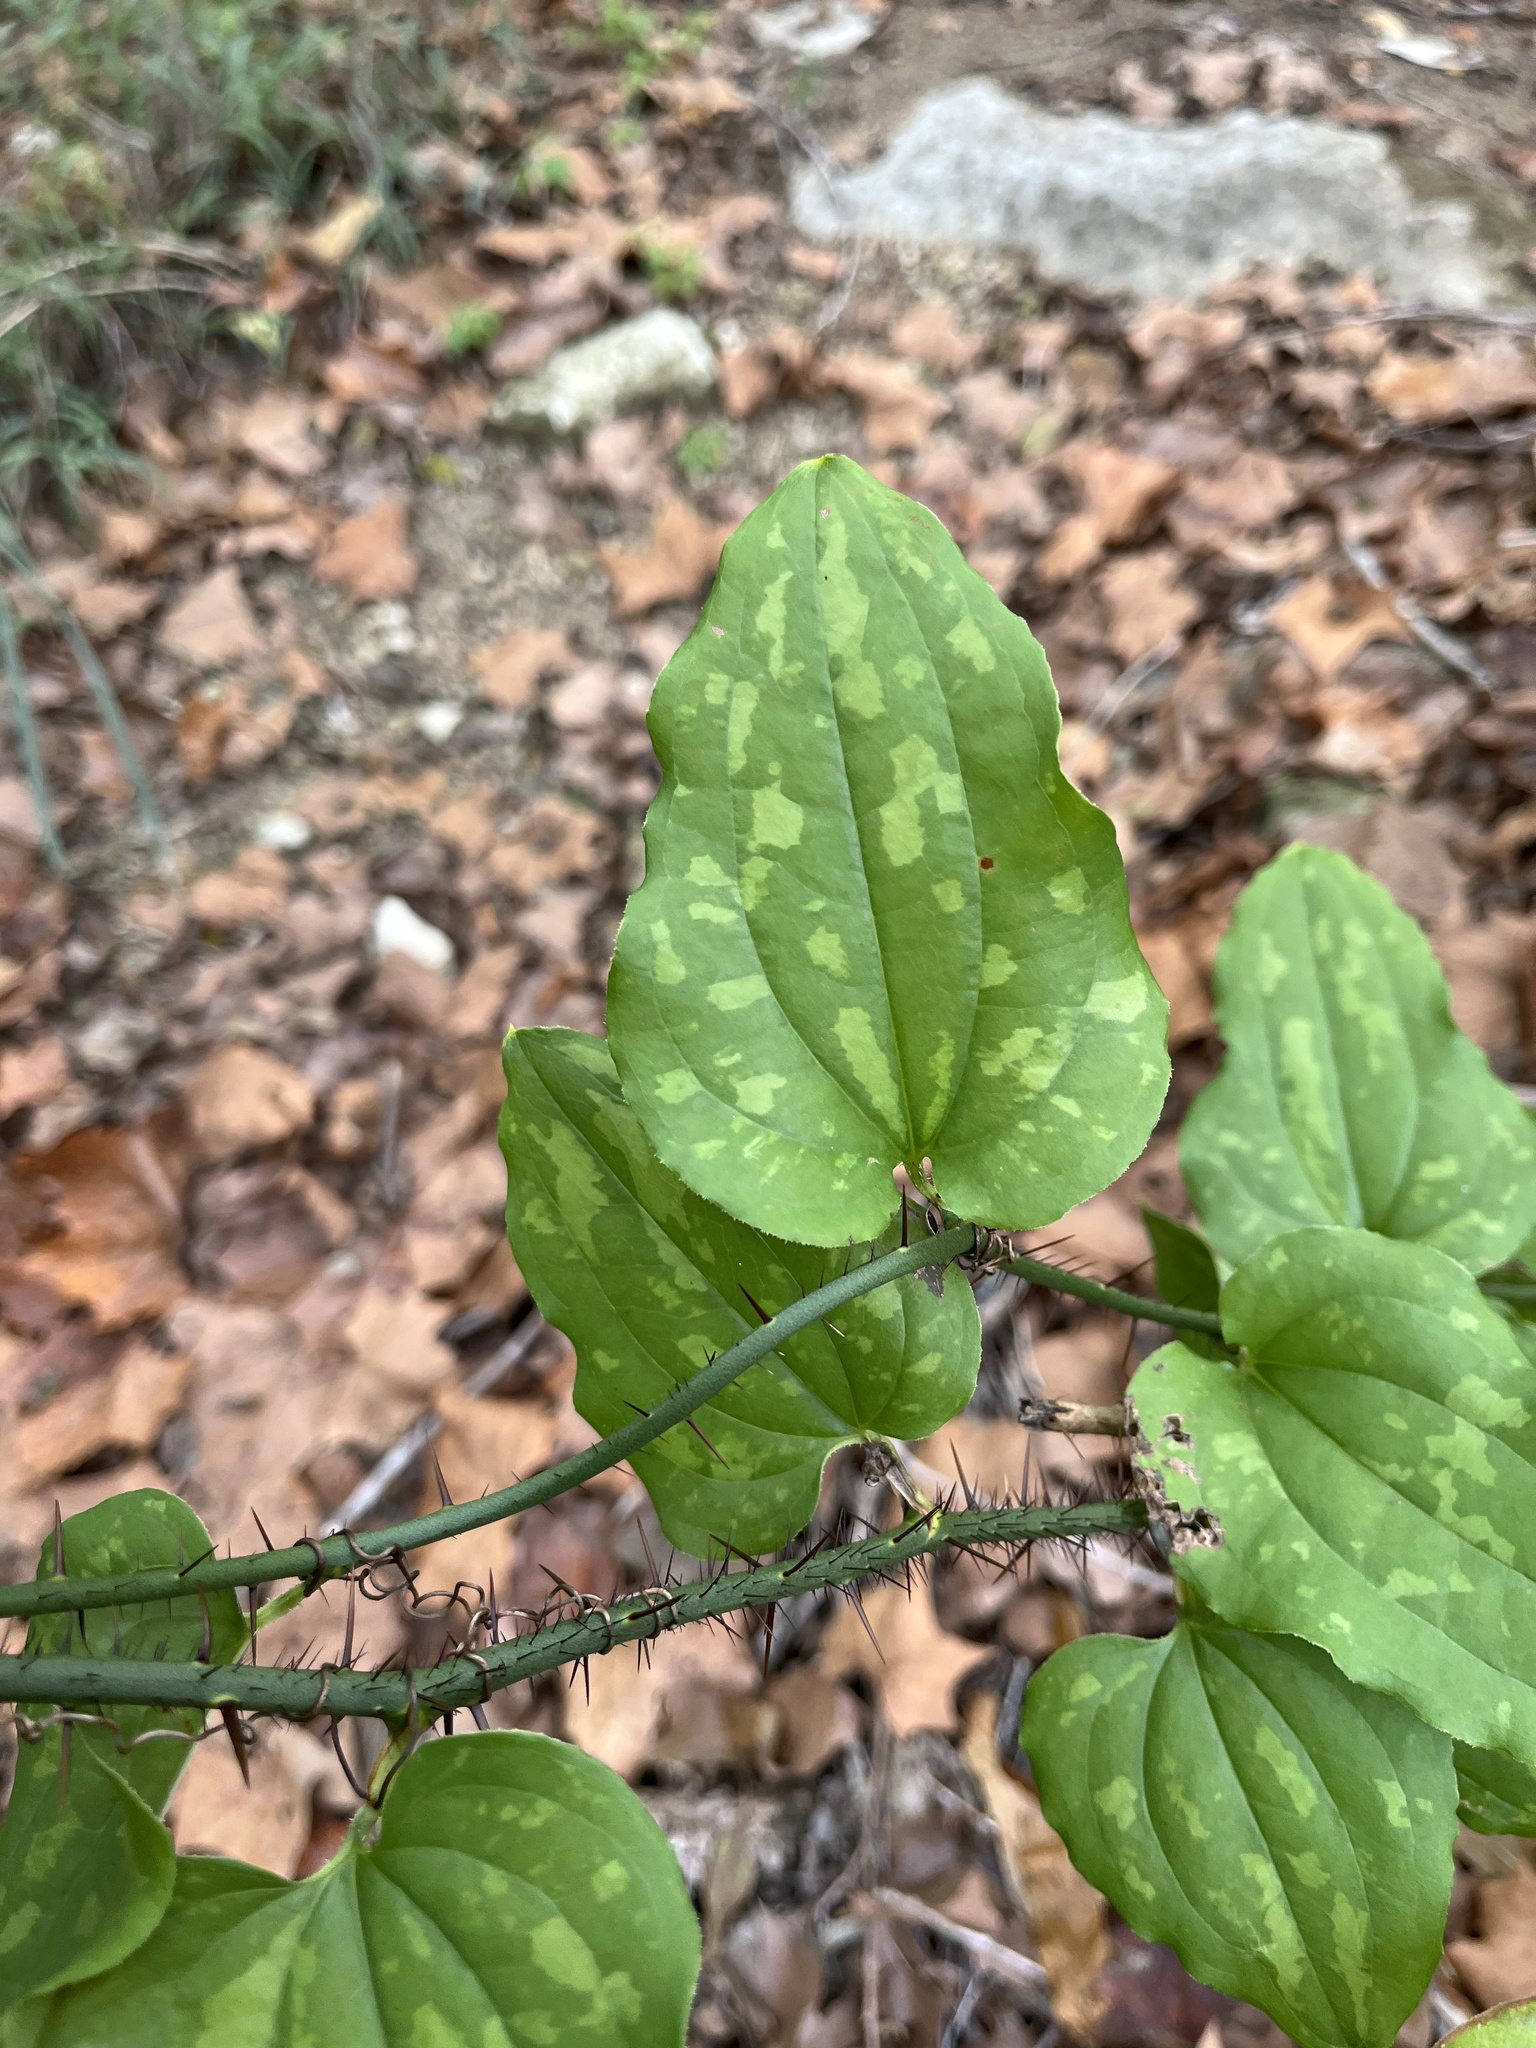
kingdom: Plantae
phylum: Tracheophyta
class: Liliopsida
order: Liliales
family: Smilacaceae
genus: Smilax
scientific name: Smilax tamnoides
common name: Hellfetter
